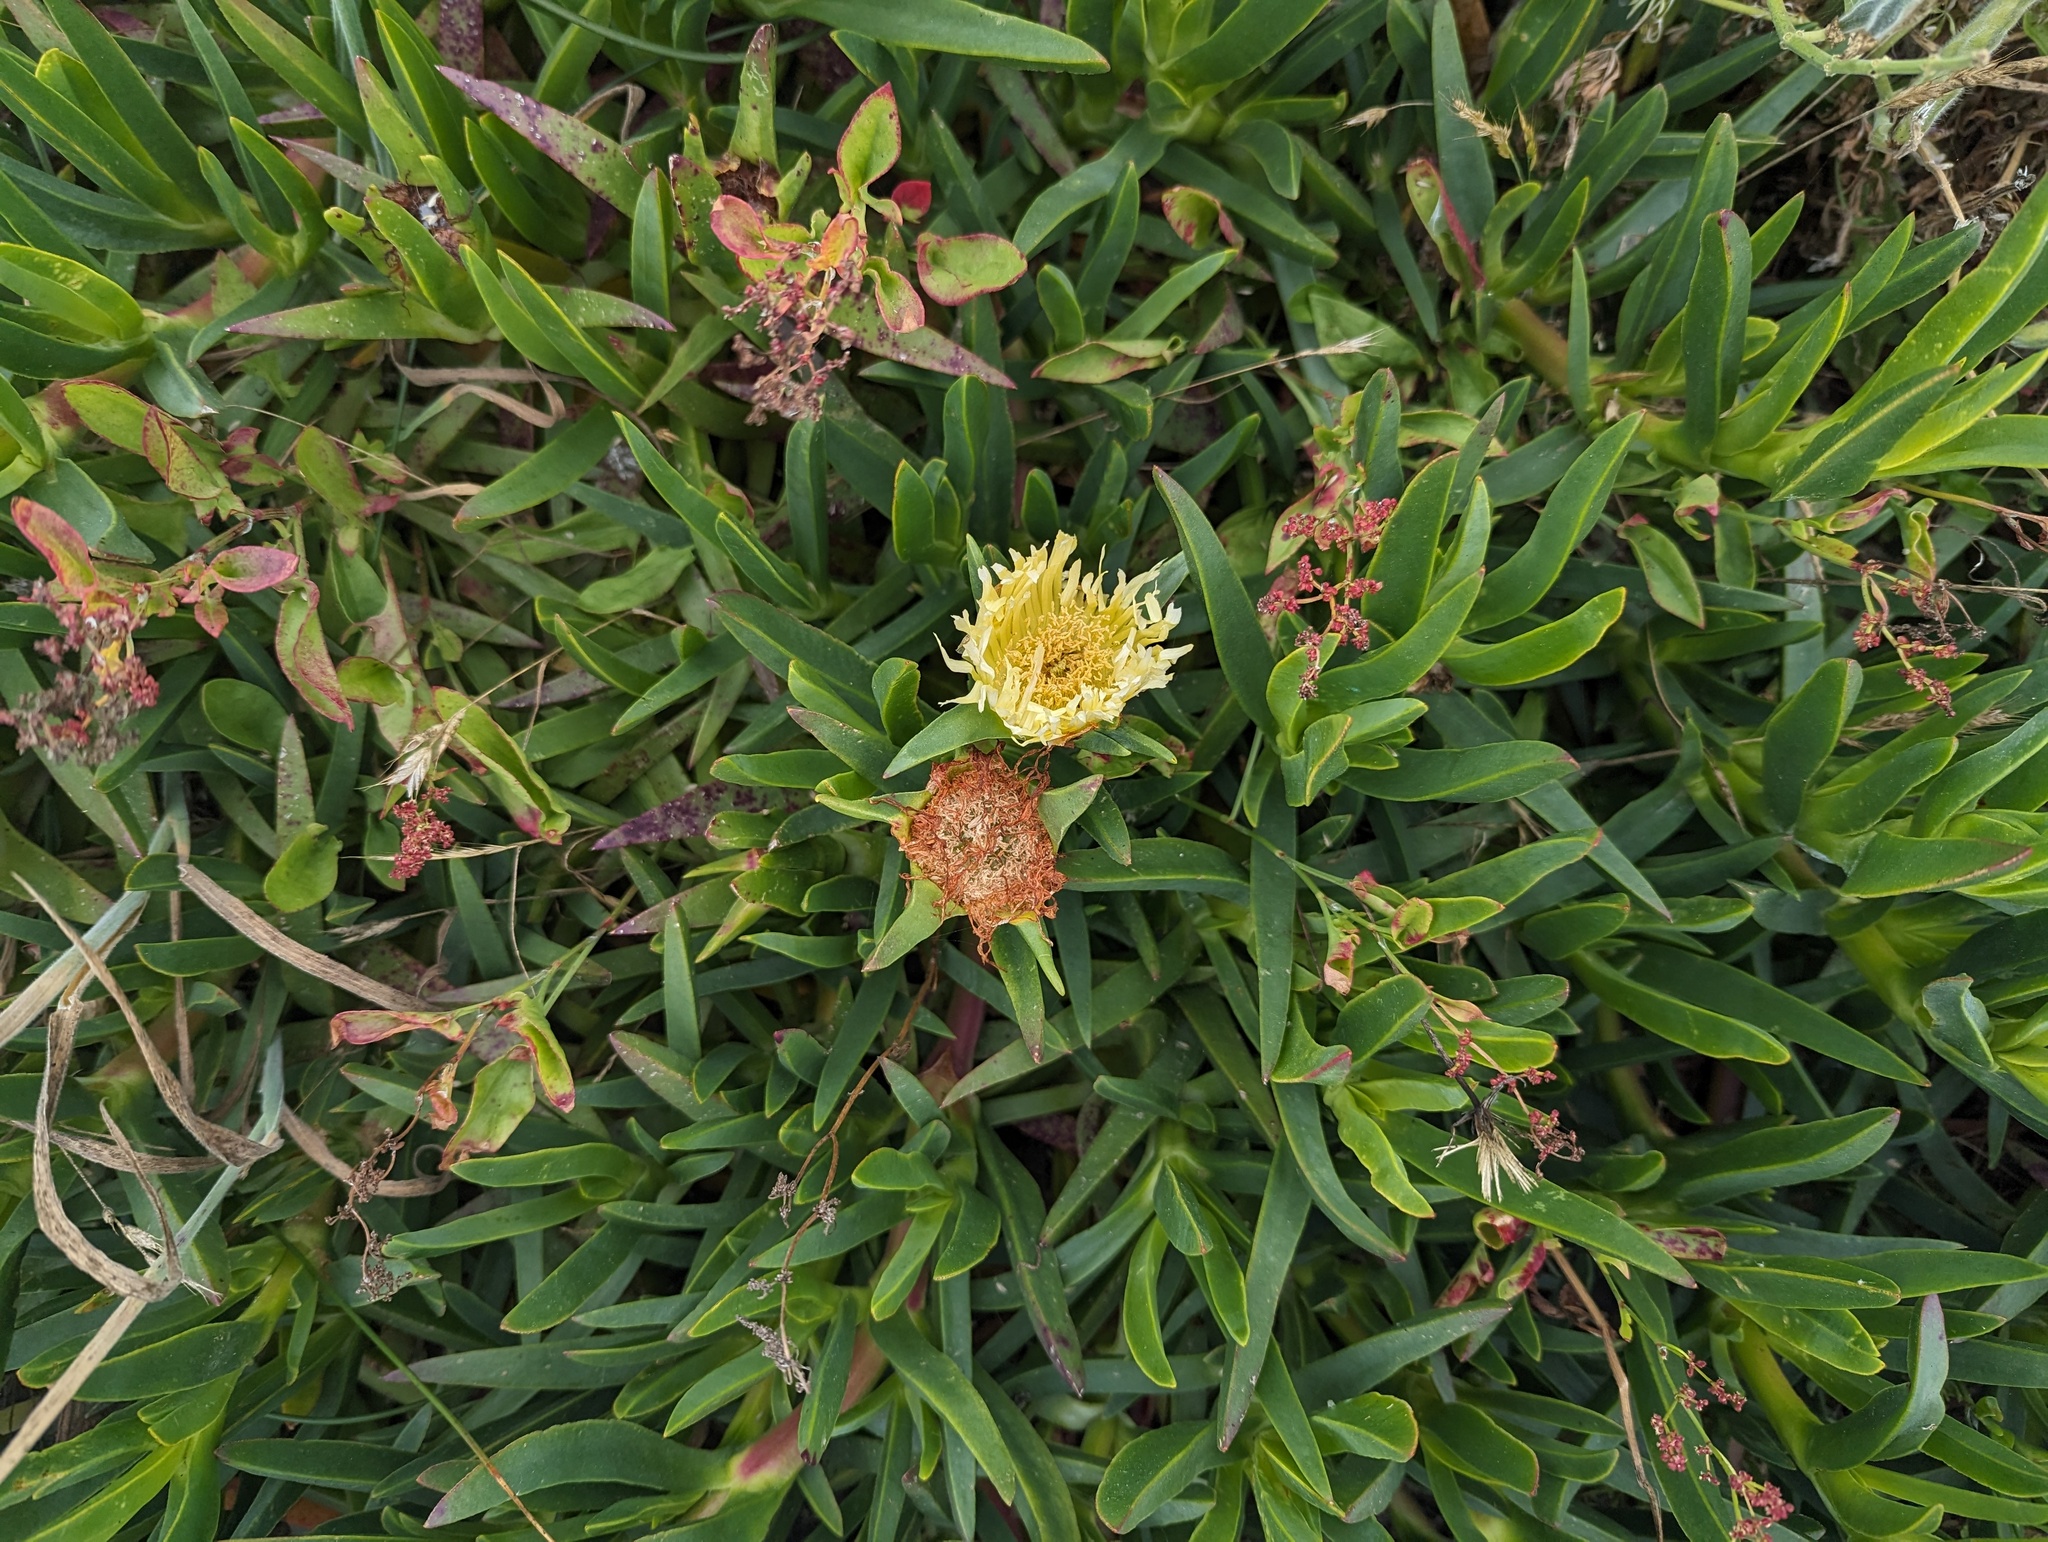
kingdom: Plantae
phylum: Tracheophyta
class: Magnoliopsida
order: Caryophyllales
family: Aizoaceae
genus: Carpobrotus
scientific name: Carpobrotus edulis
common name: Hottentot-fig
